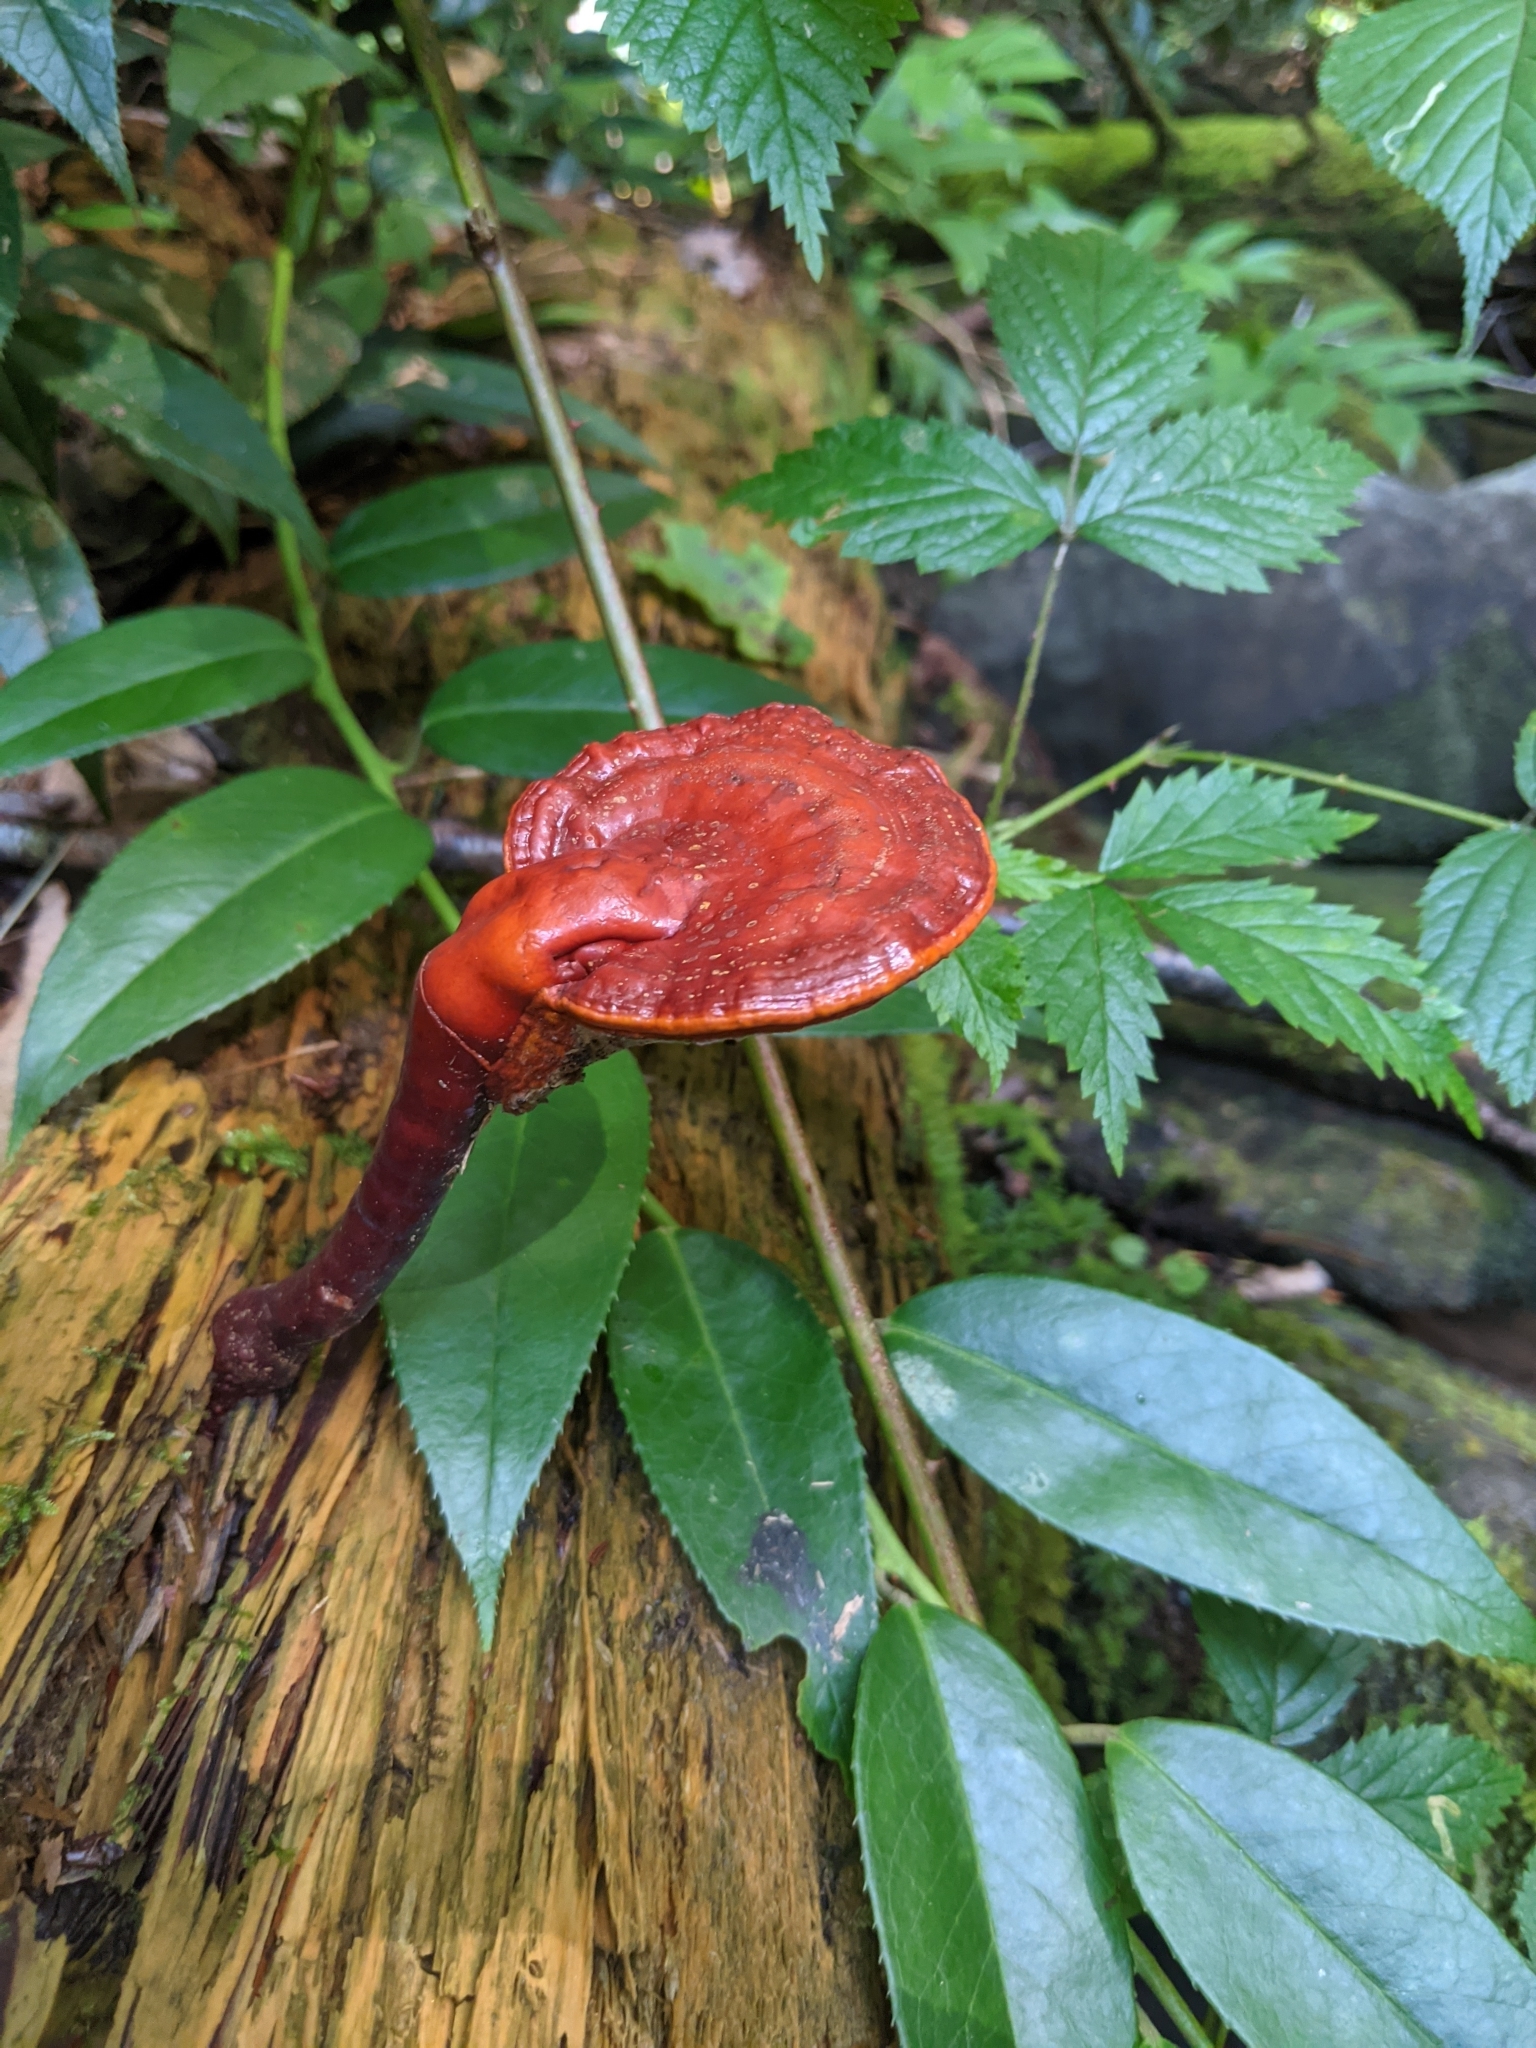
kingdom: Fungi
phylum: Basidiomycota
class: Agaricomycetes
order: Polyporales
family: Polyporaceae
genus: Ganoderma
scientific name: Ganoderma tsugae
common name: Hemlock varnish shelf
